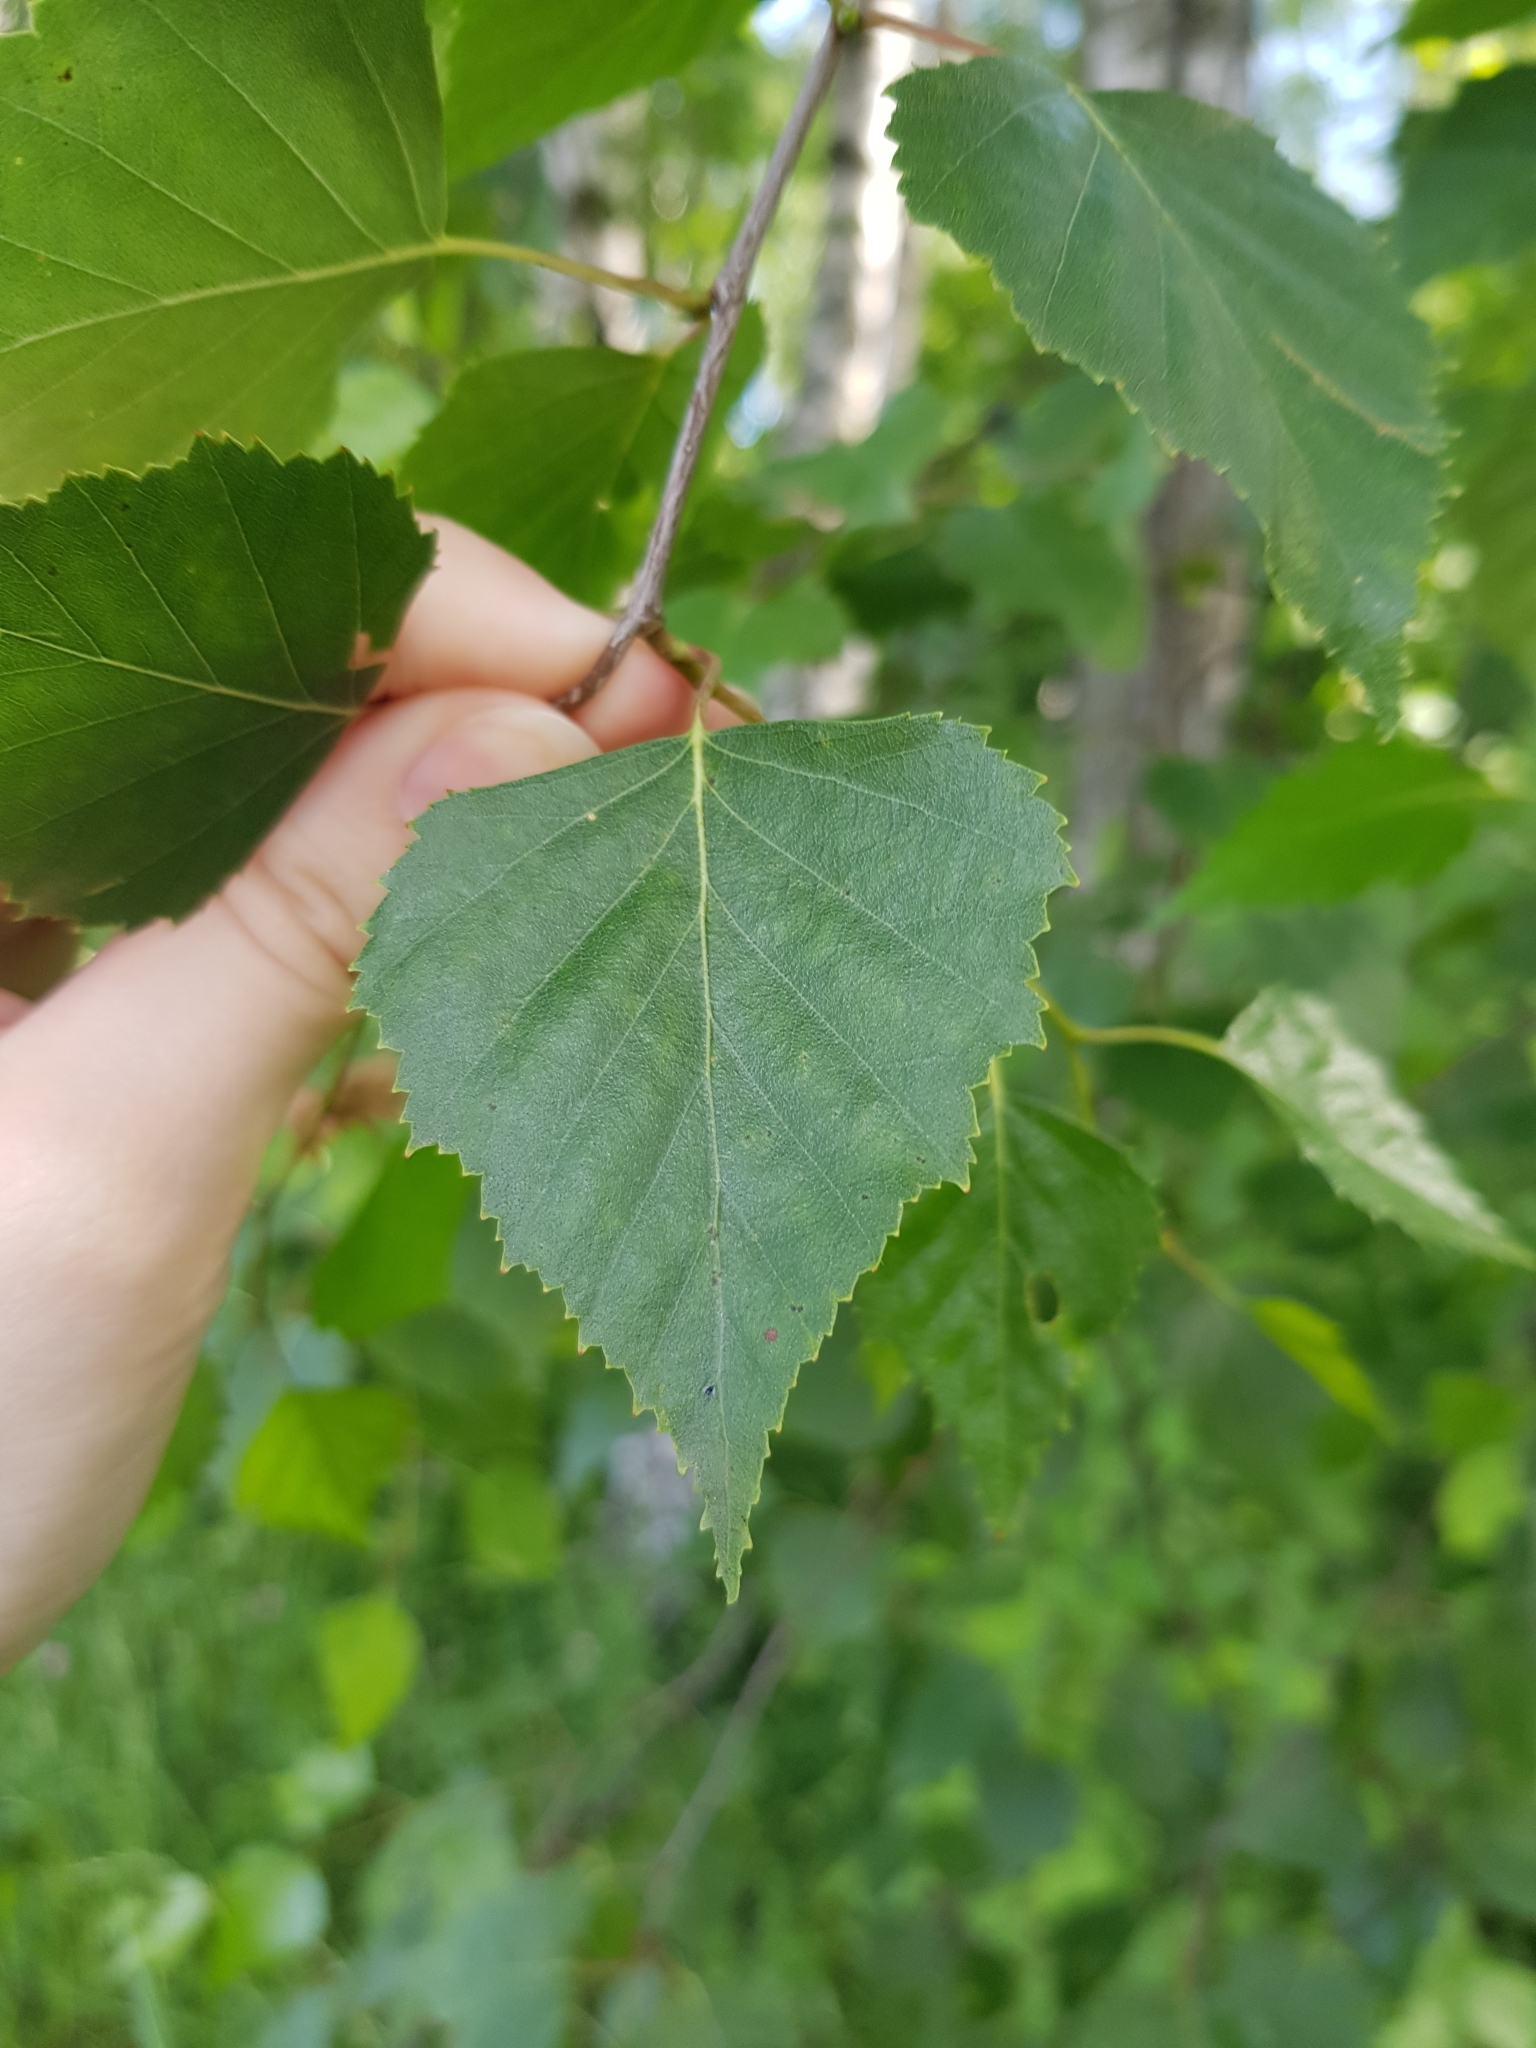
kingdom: Plantae
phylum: Tracheophyta
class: Magnoliopsida
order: Fagales
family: Betulaceae
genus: Betula
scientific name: Betula pendula
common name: Silver birch
